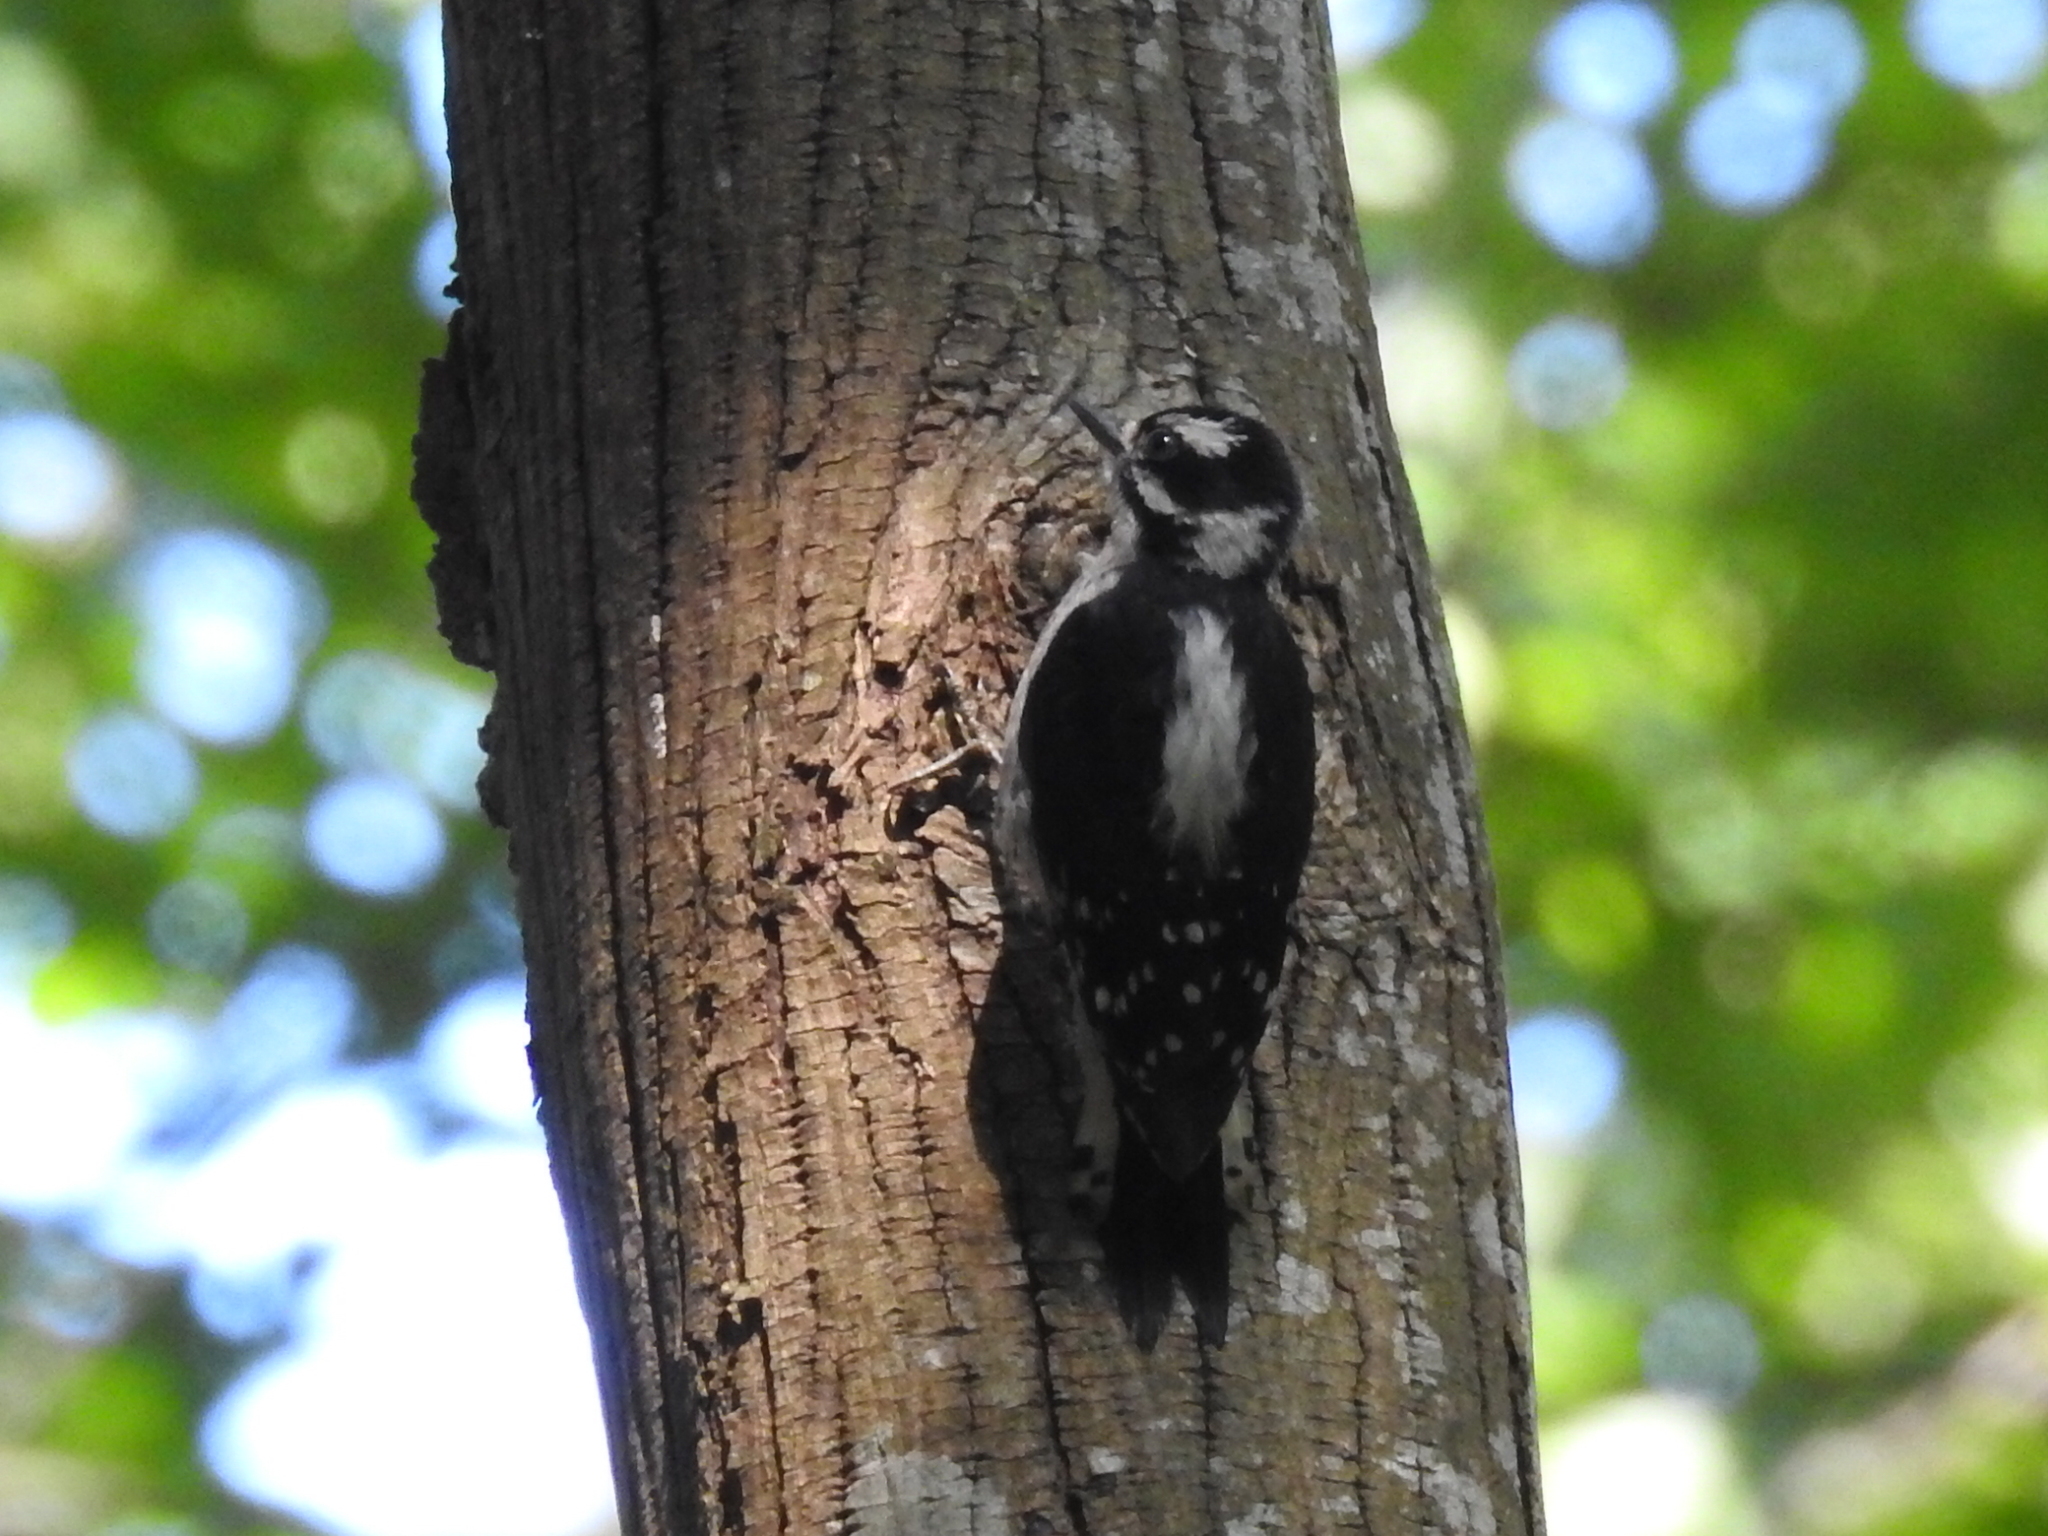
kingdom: Animalia
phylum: Chordata
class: Aves
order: Piciformes
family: Picidae
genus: Dryobates
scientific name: Dryobates pubescens
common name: Downy woodpecker
